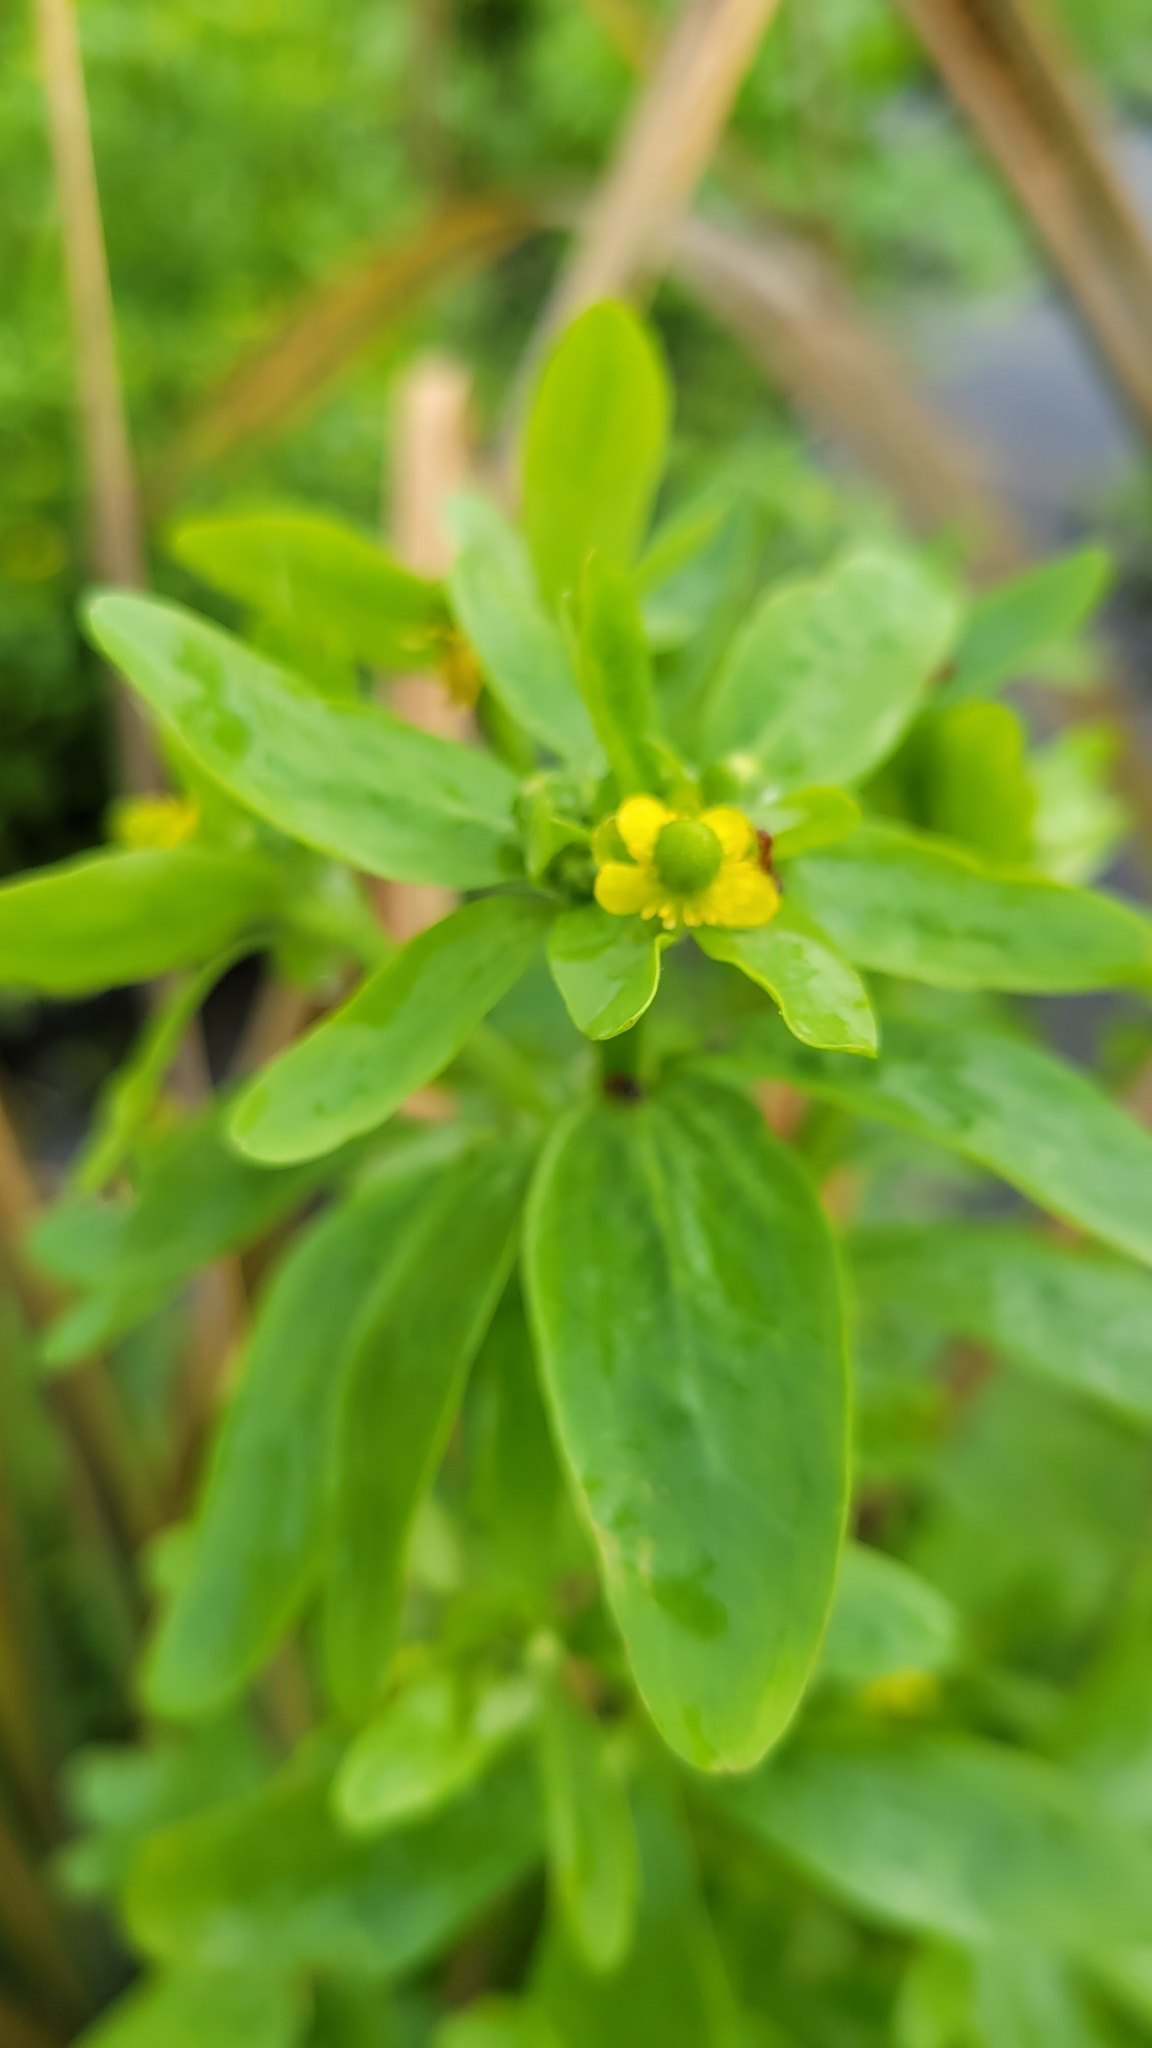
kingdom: Plantae
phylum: Tracheophyta
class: Magnoliopsida
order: Ranunculales
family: Ranunculaceae
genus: Ranunculus
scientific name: Ranunculus sceleratus
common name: Celery-leaved buttercup
